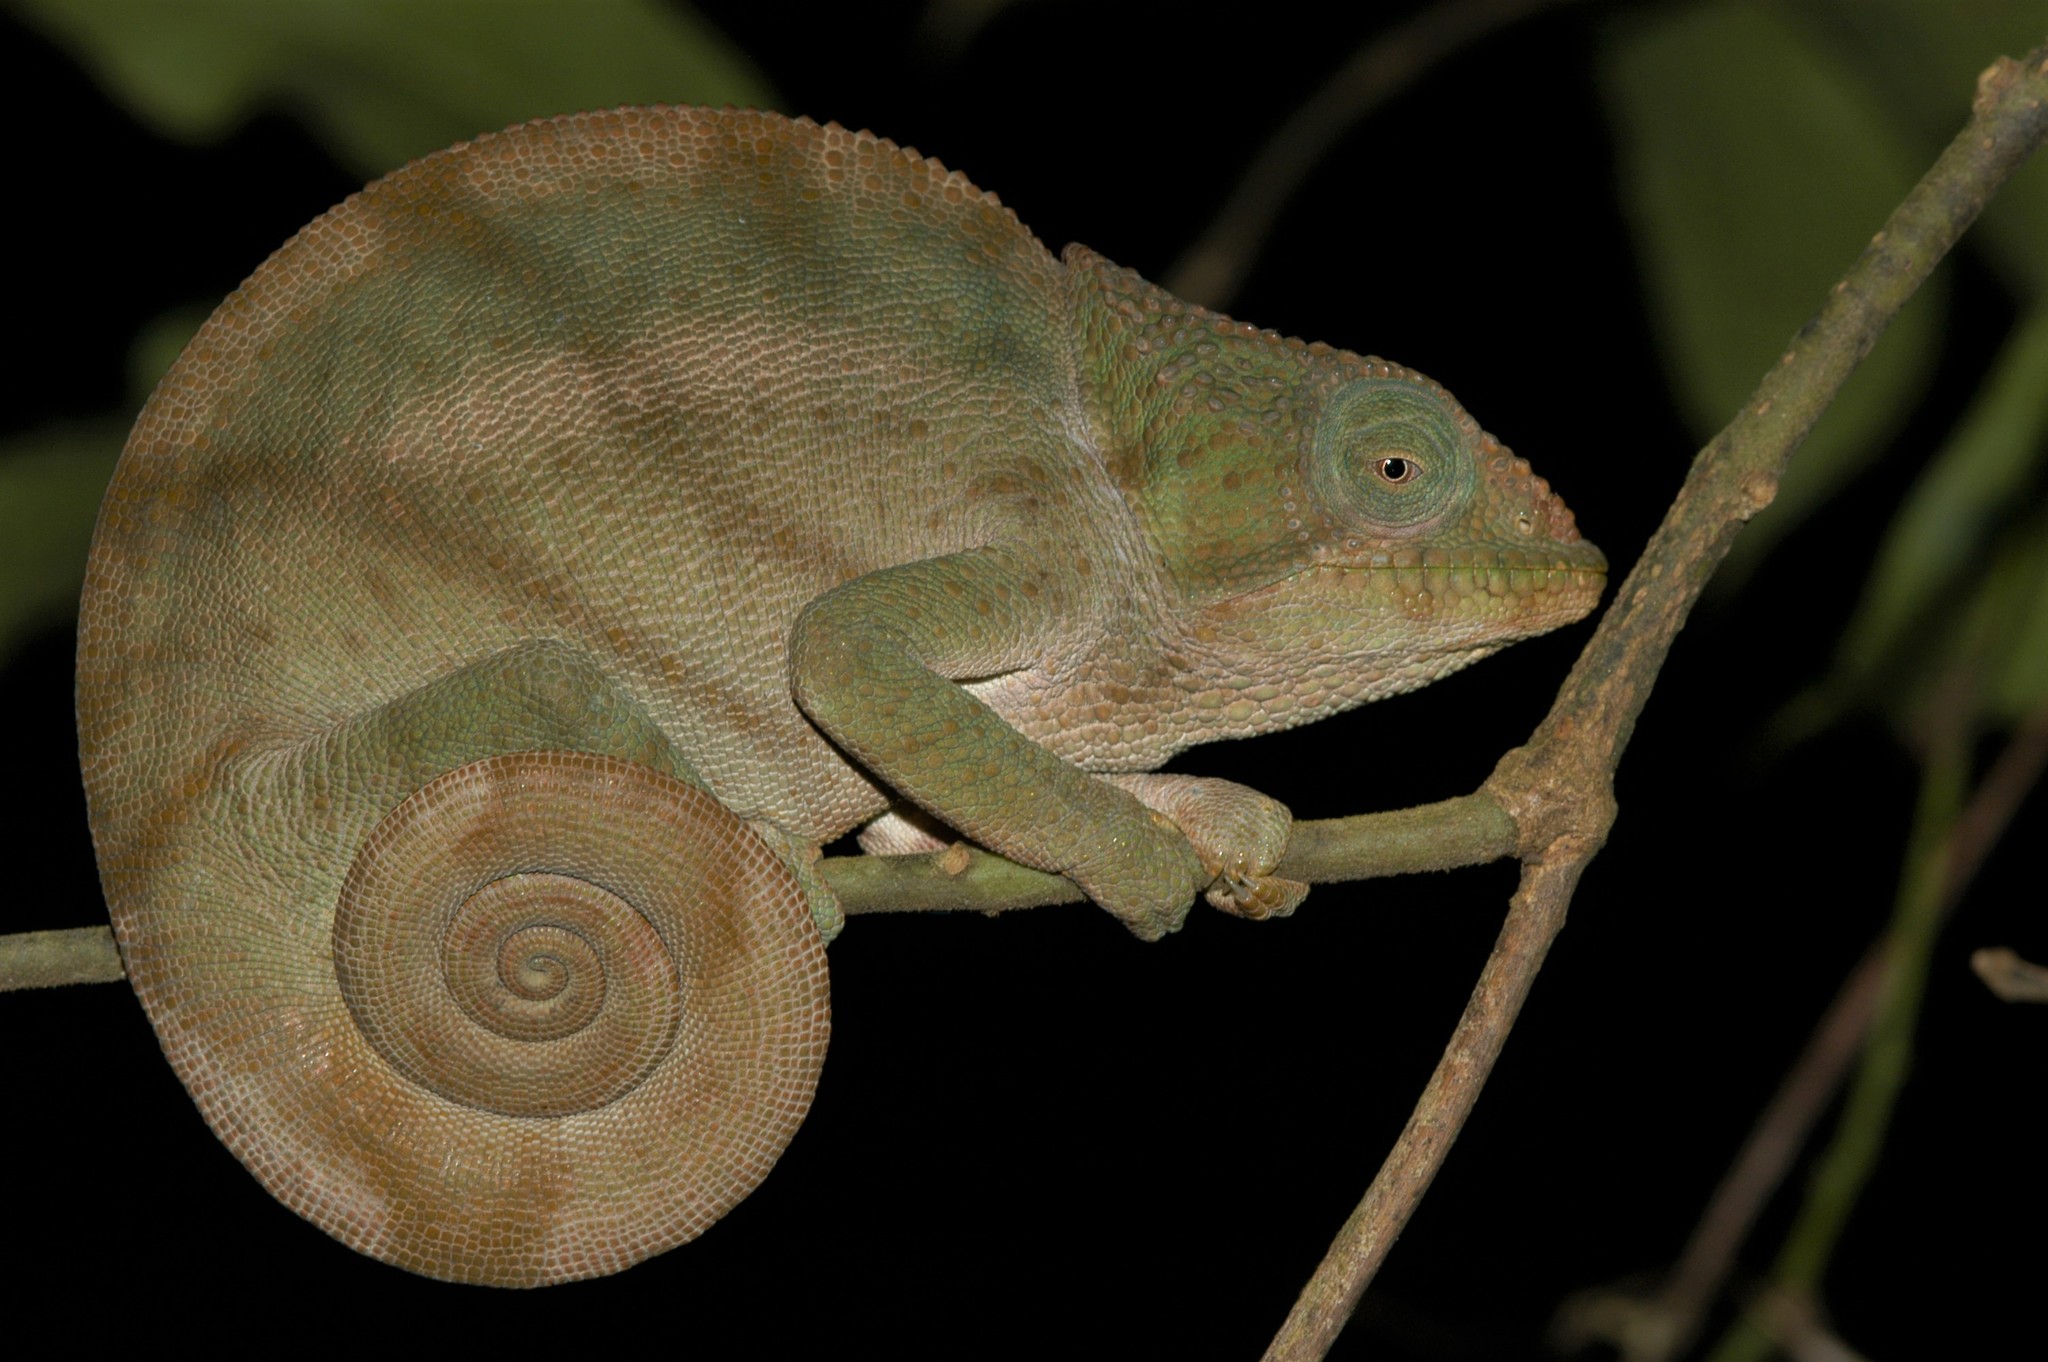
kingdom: Animalia
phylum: Chordata
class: Squamata
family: Chamaeleonidae
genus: Calumma
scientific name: Calumma ambreense
